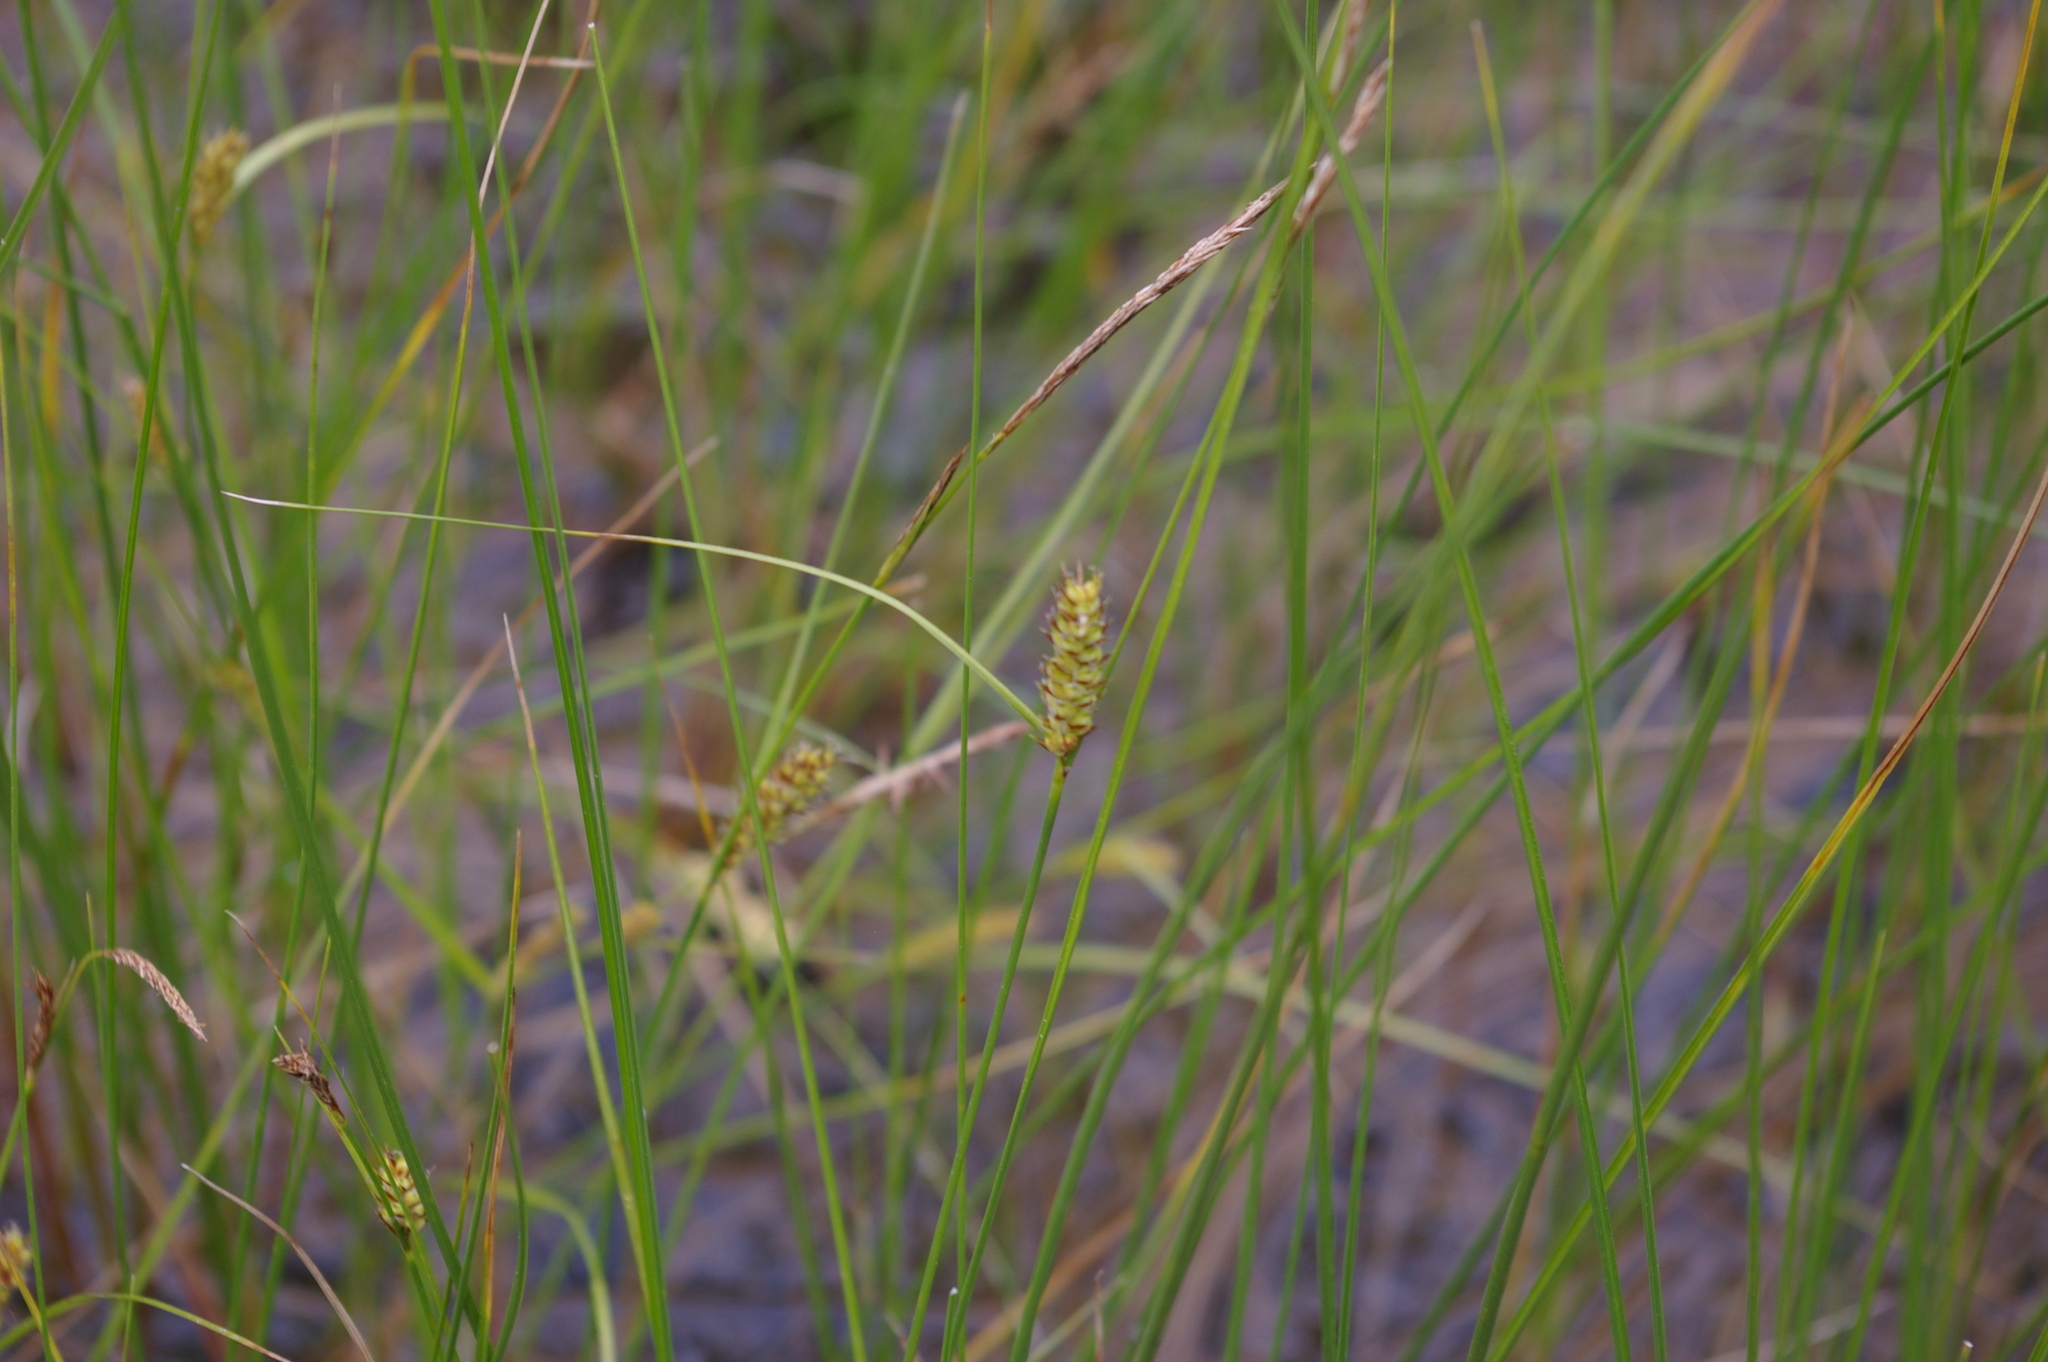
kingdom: Plantae
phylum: Tracheophyta
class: Liliopsida
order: Poales
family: Cyperaceae
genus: Carex
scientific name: Carex lasiocarpa
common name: Slender sedge
